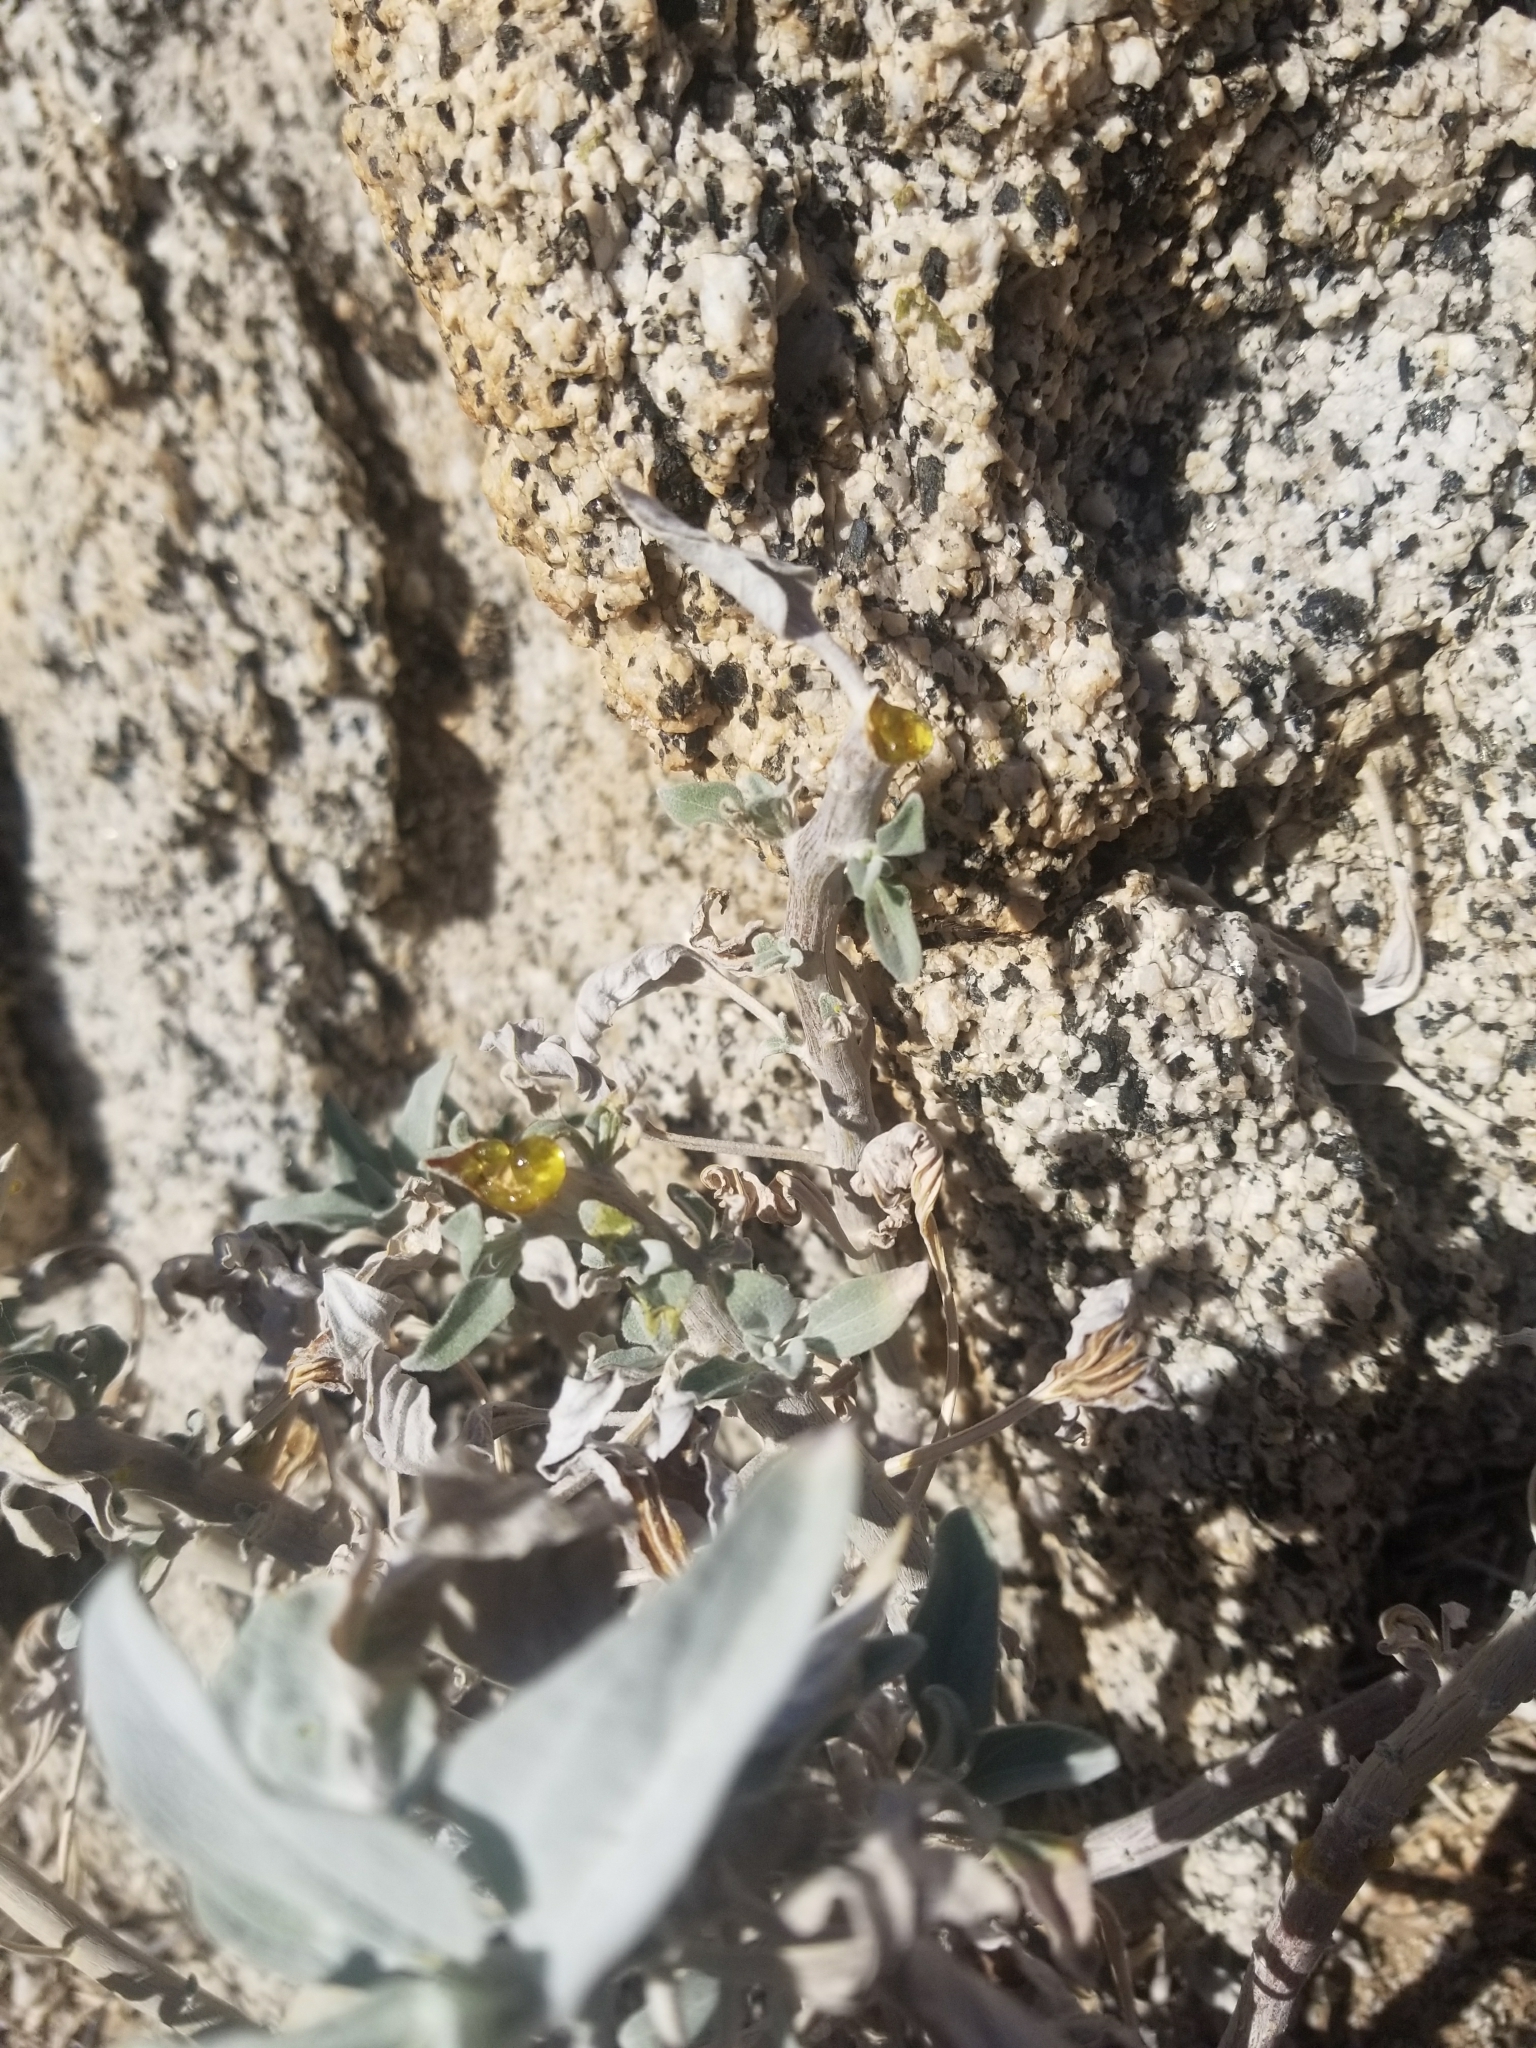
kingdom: Plantae
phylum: Tracheophyta
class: Magnoliopsida
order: Asterales
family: Asteraceae
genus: Encelia
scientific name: Encelia farinosa
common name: Brittlebush
